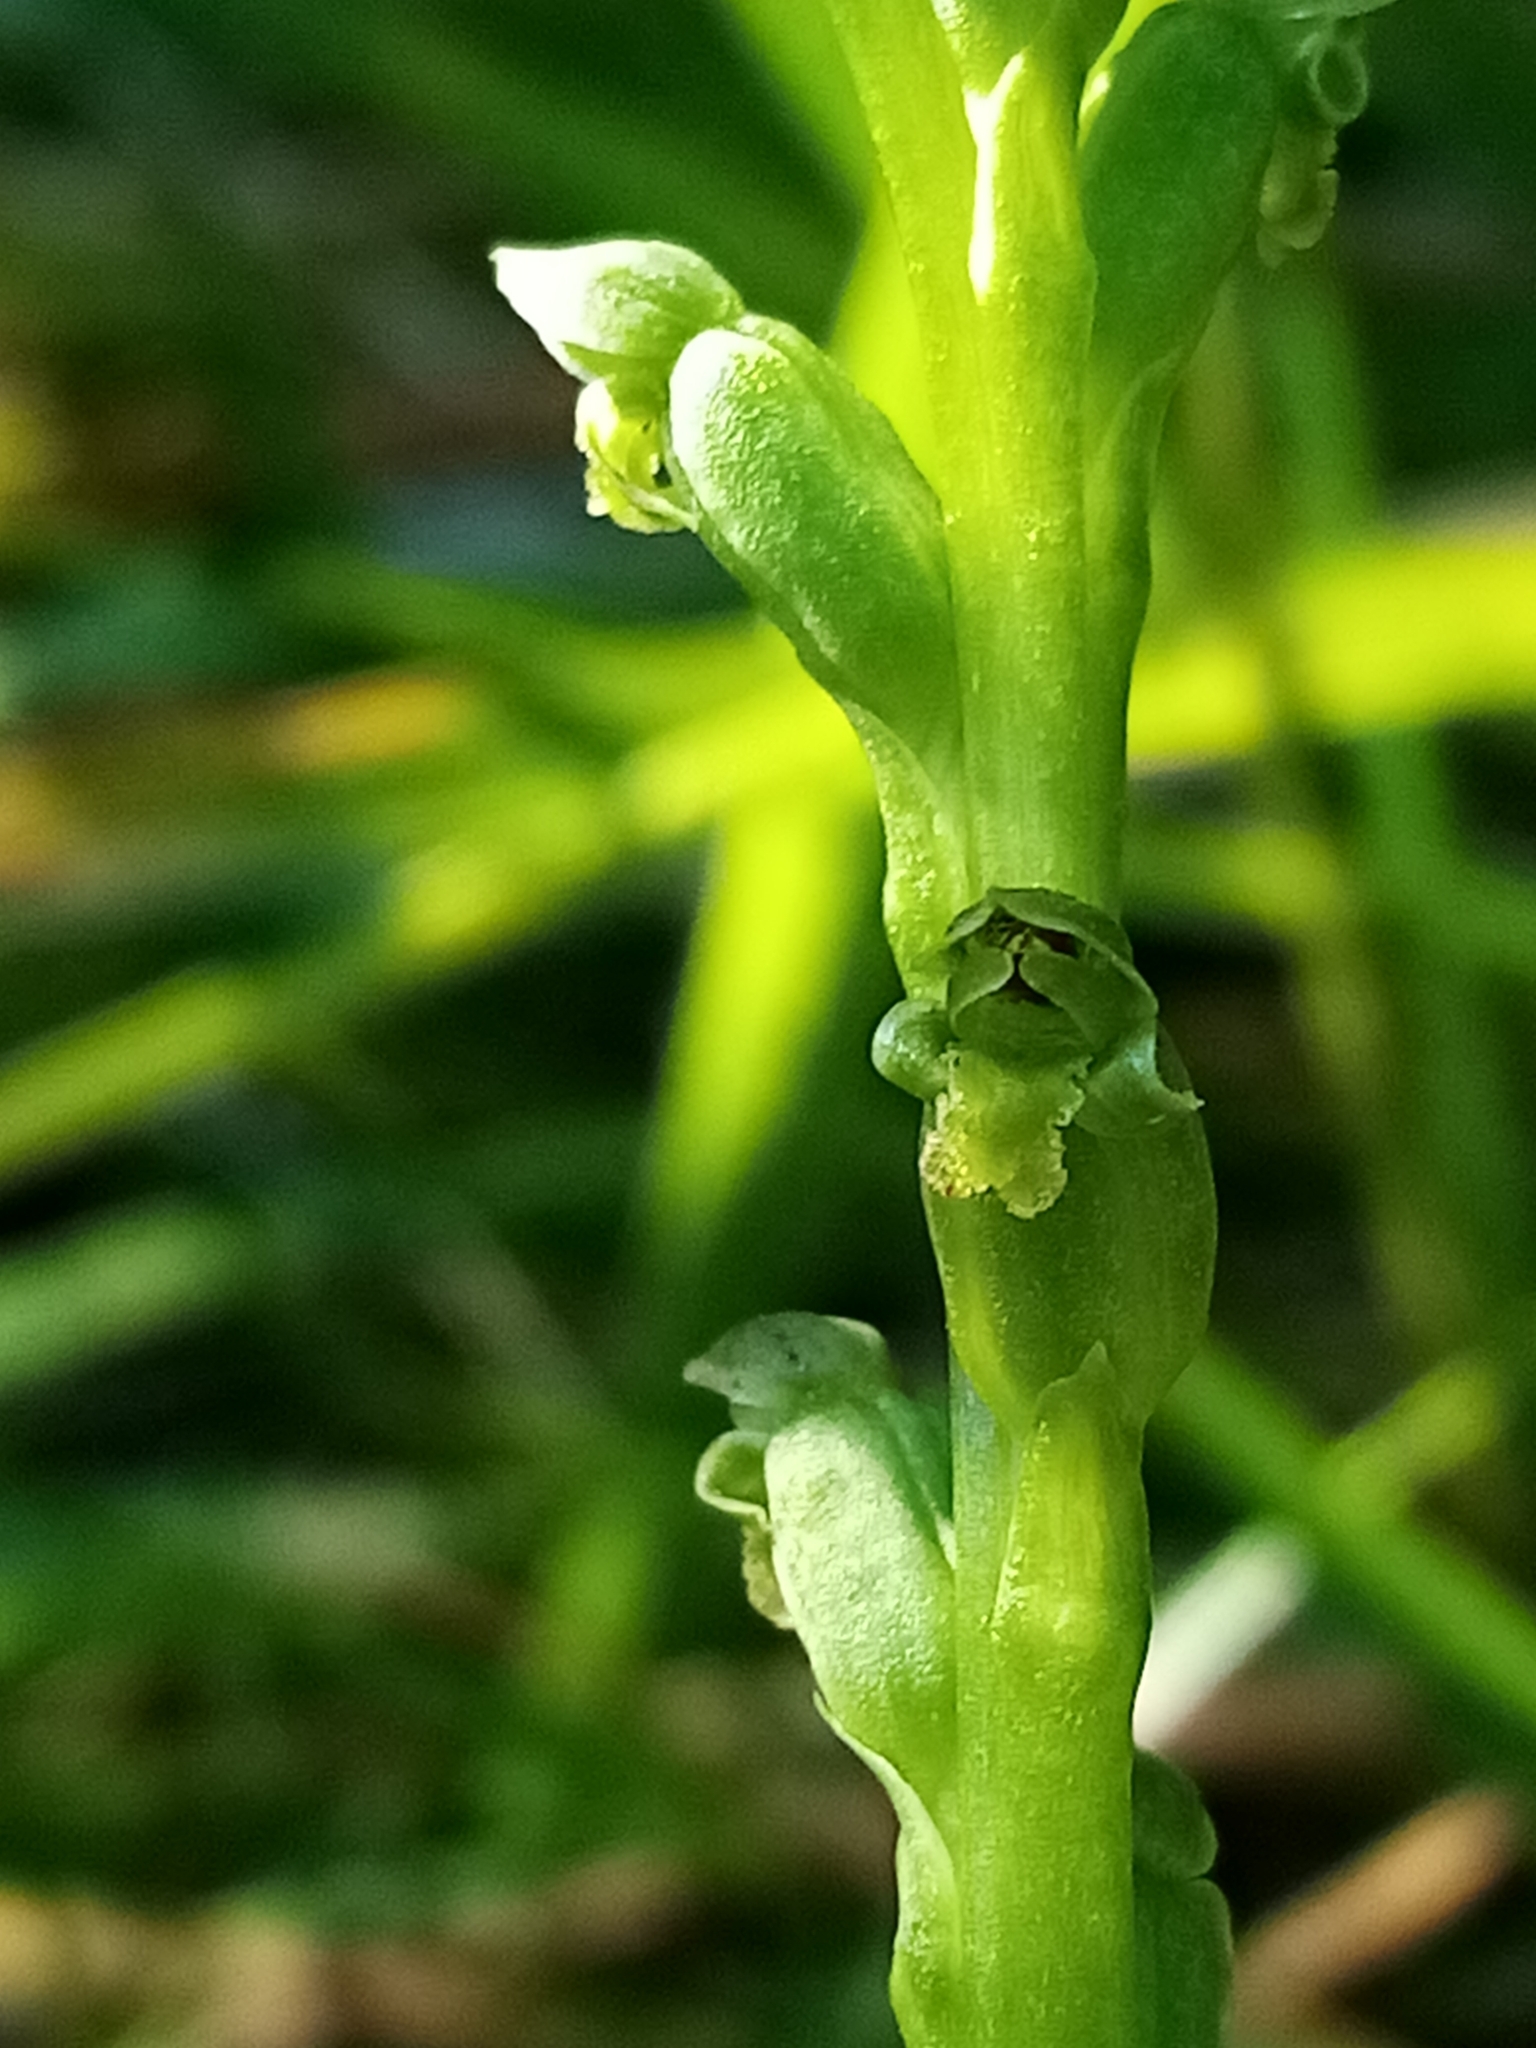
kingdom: Plantae
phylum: Tracheophyta
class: Liliopsida
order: Asparagales
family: Orchidaceae
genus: Microtis
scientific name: Microtis unifolia
